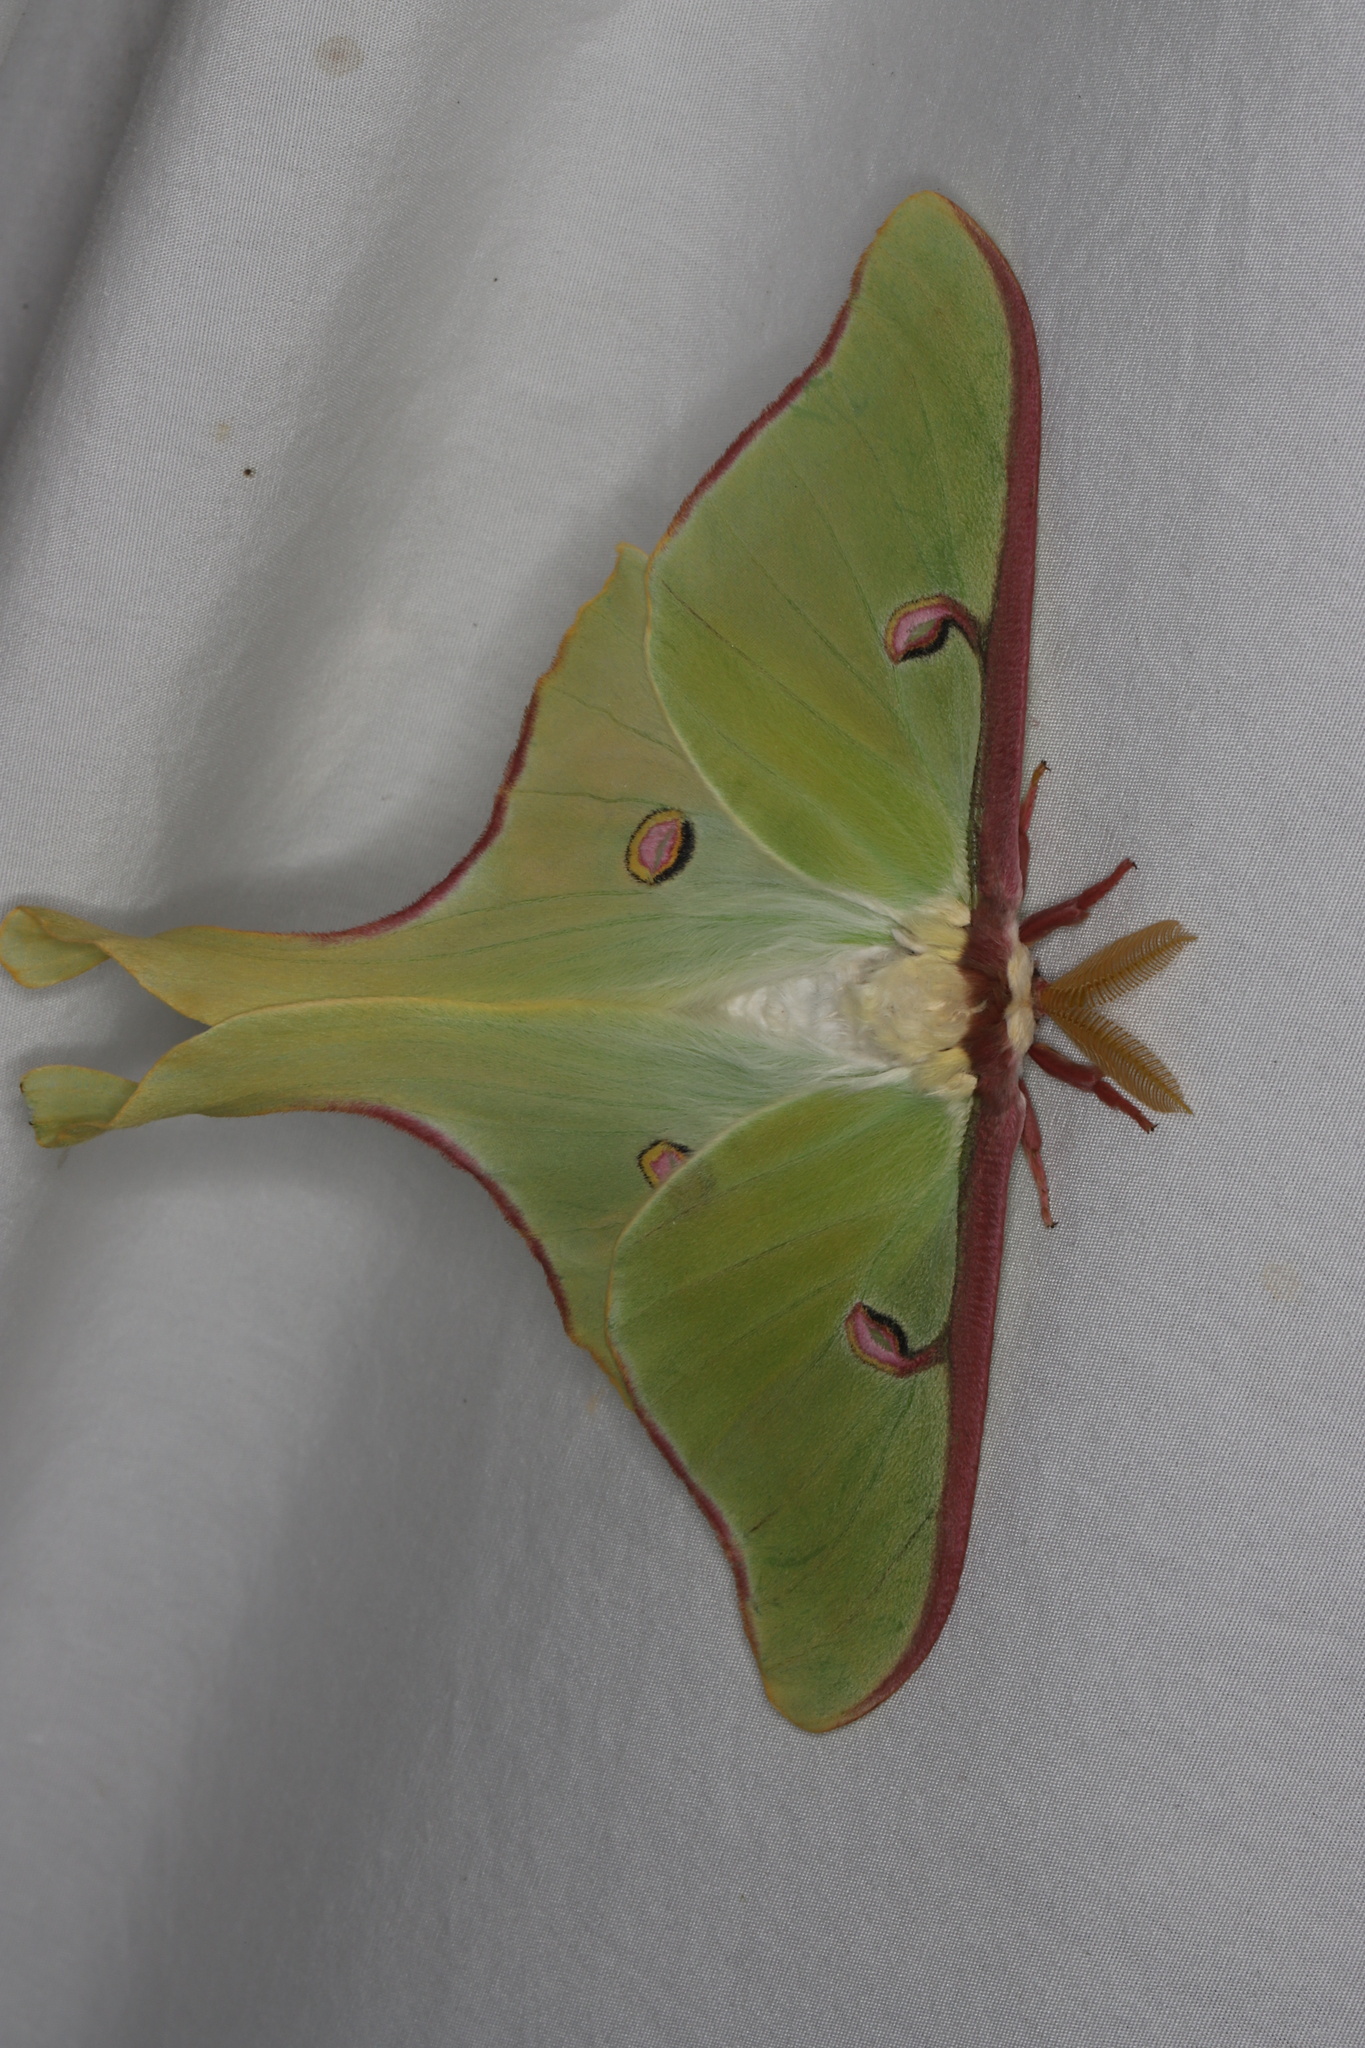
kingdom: Animalia
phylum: Arthropoda
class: Insecta
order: Lepidoptera
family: Saturniidae
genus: Actias
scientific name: Actias luna
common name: Luna moth
